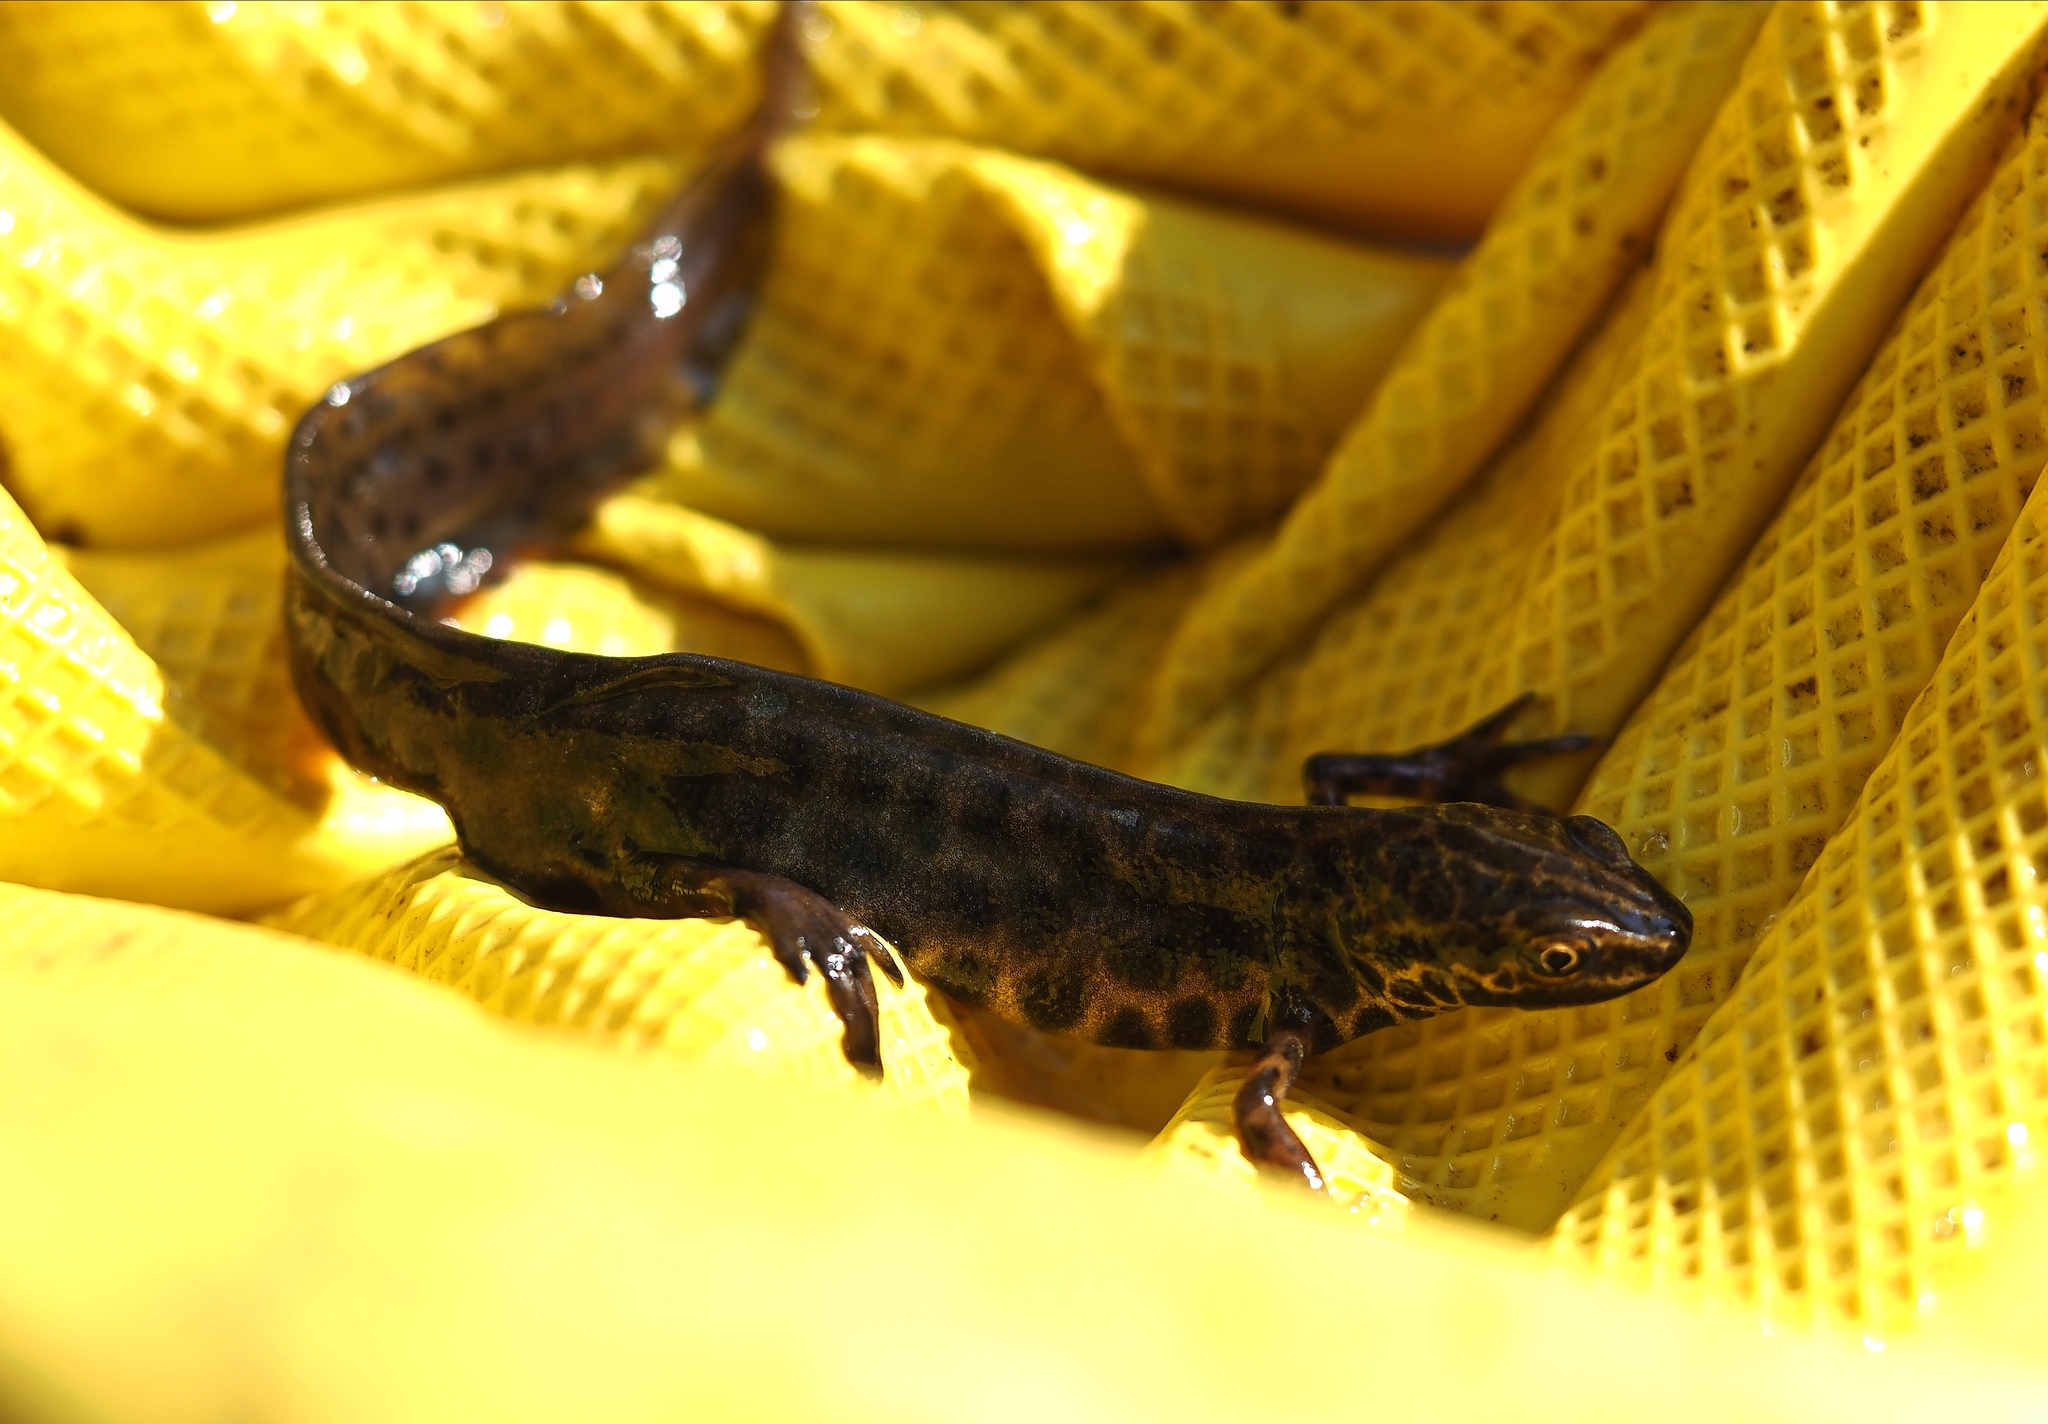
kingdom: Animalia
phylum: Chordata
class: Amphibia
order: Caudata
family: Salamandridae
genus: Lissotriton
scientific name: Lissotriton vulgaris
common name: Smooth newt
